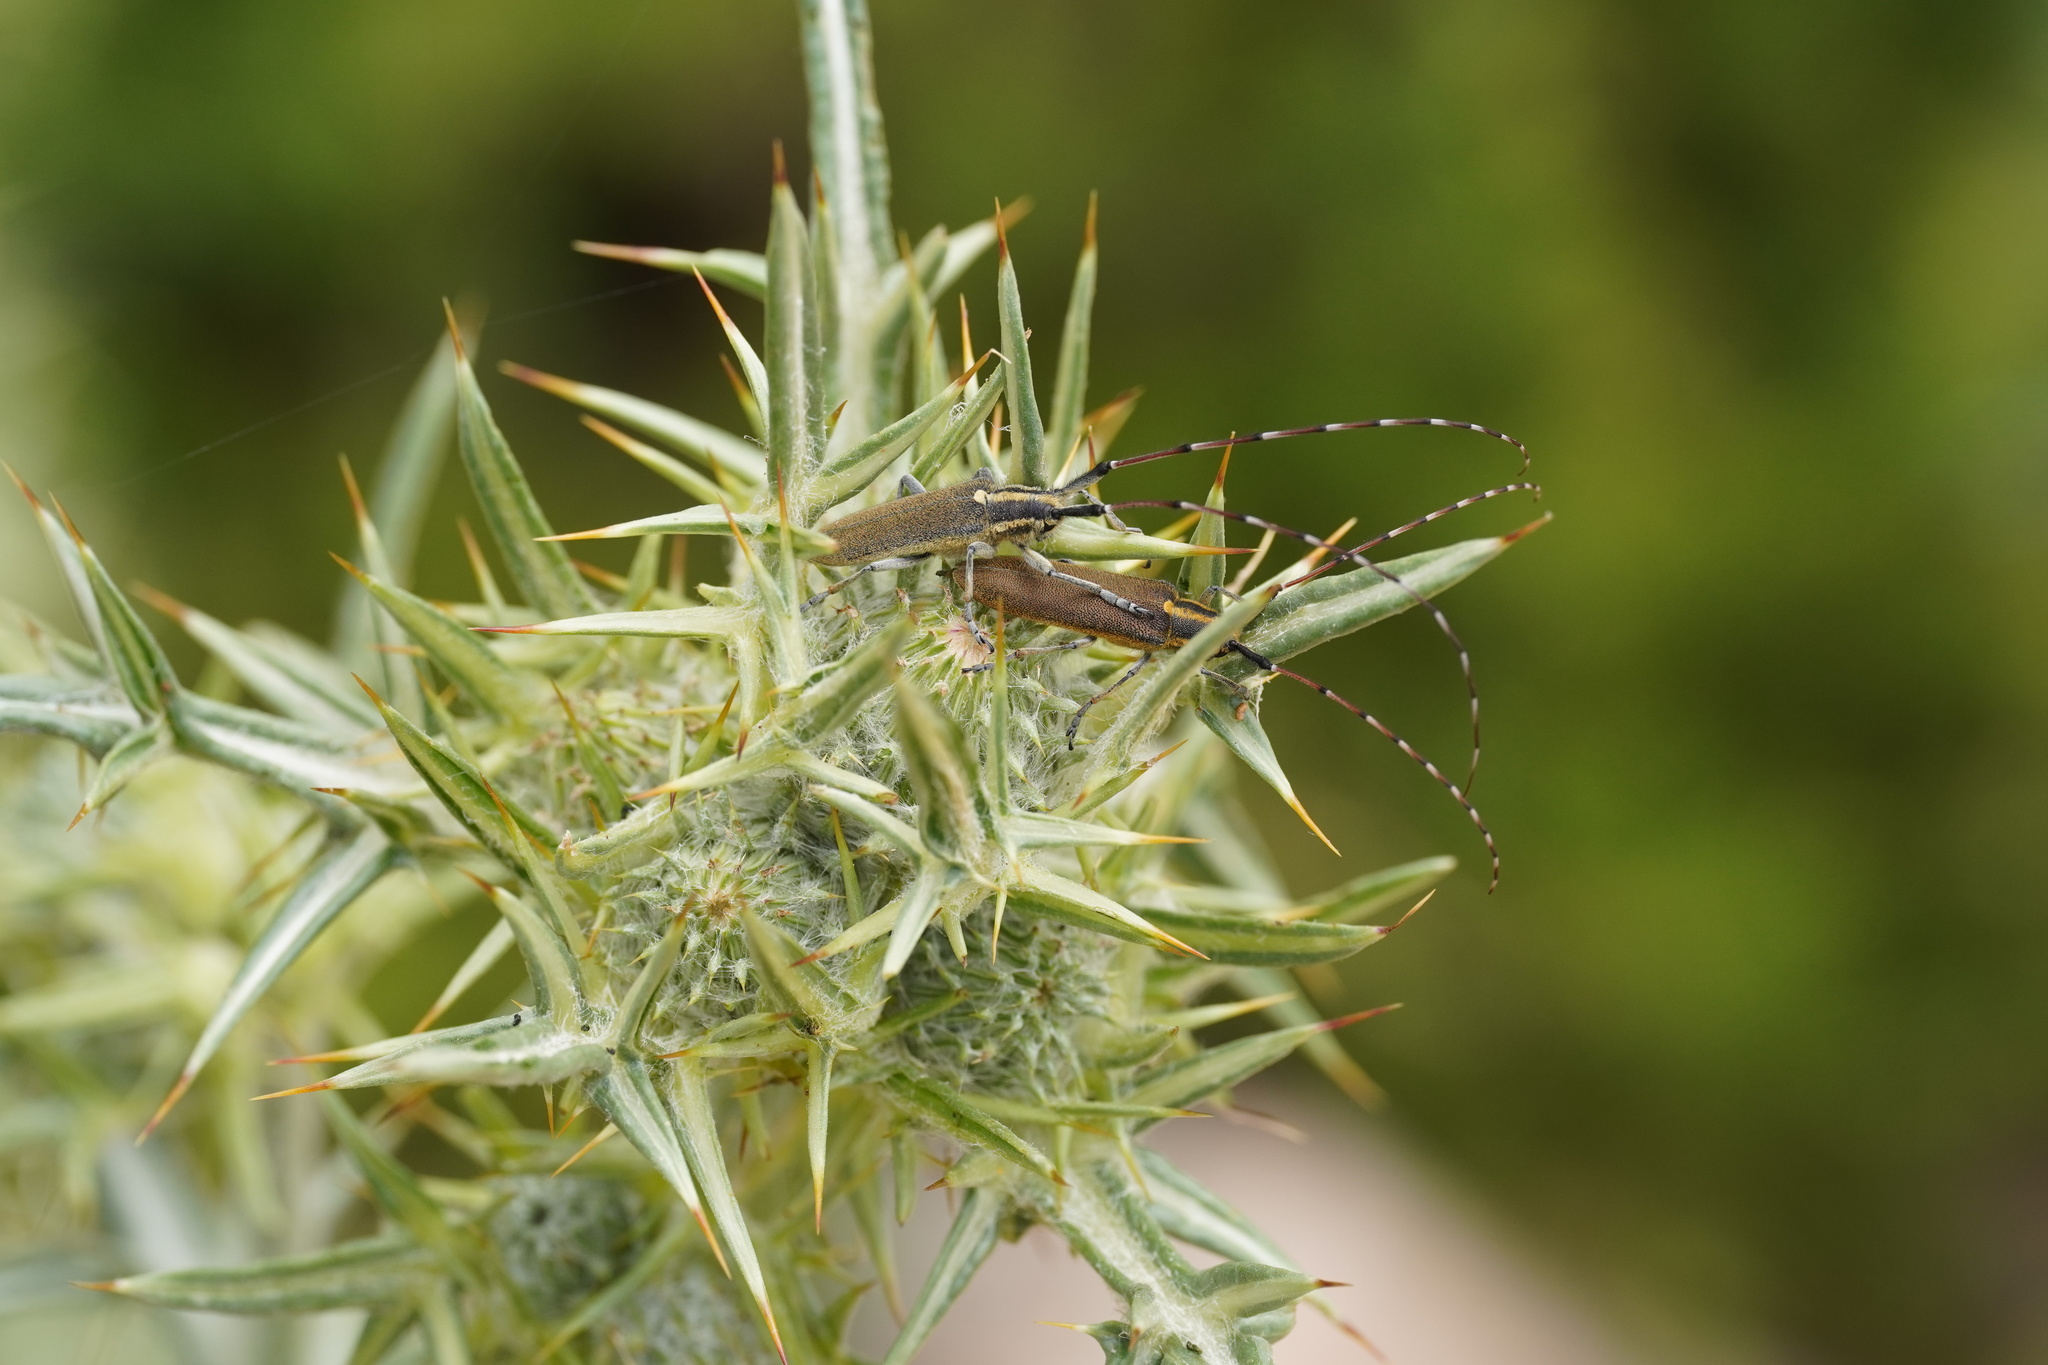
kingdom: Animalia
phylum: Arthropoda
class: Insecta
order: Coleoptera
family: Cerambycidae
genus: Agapanthia
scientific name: Agapanthia asphodeli
